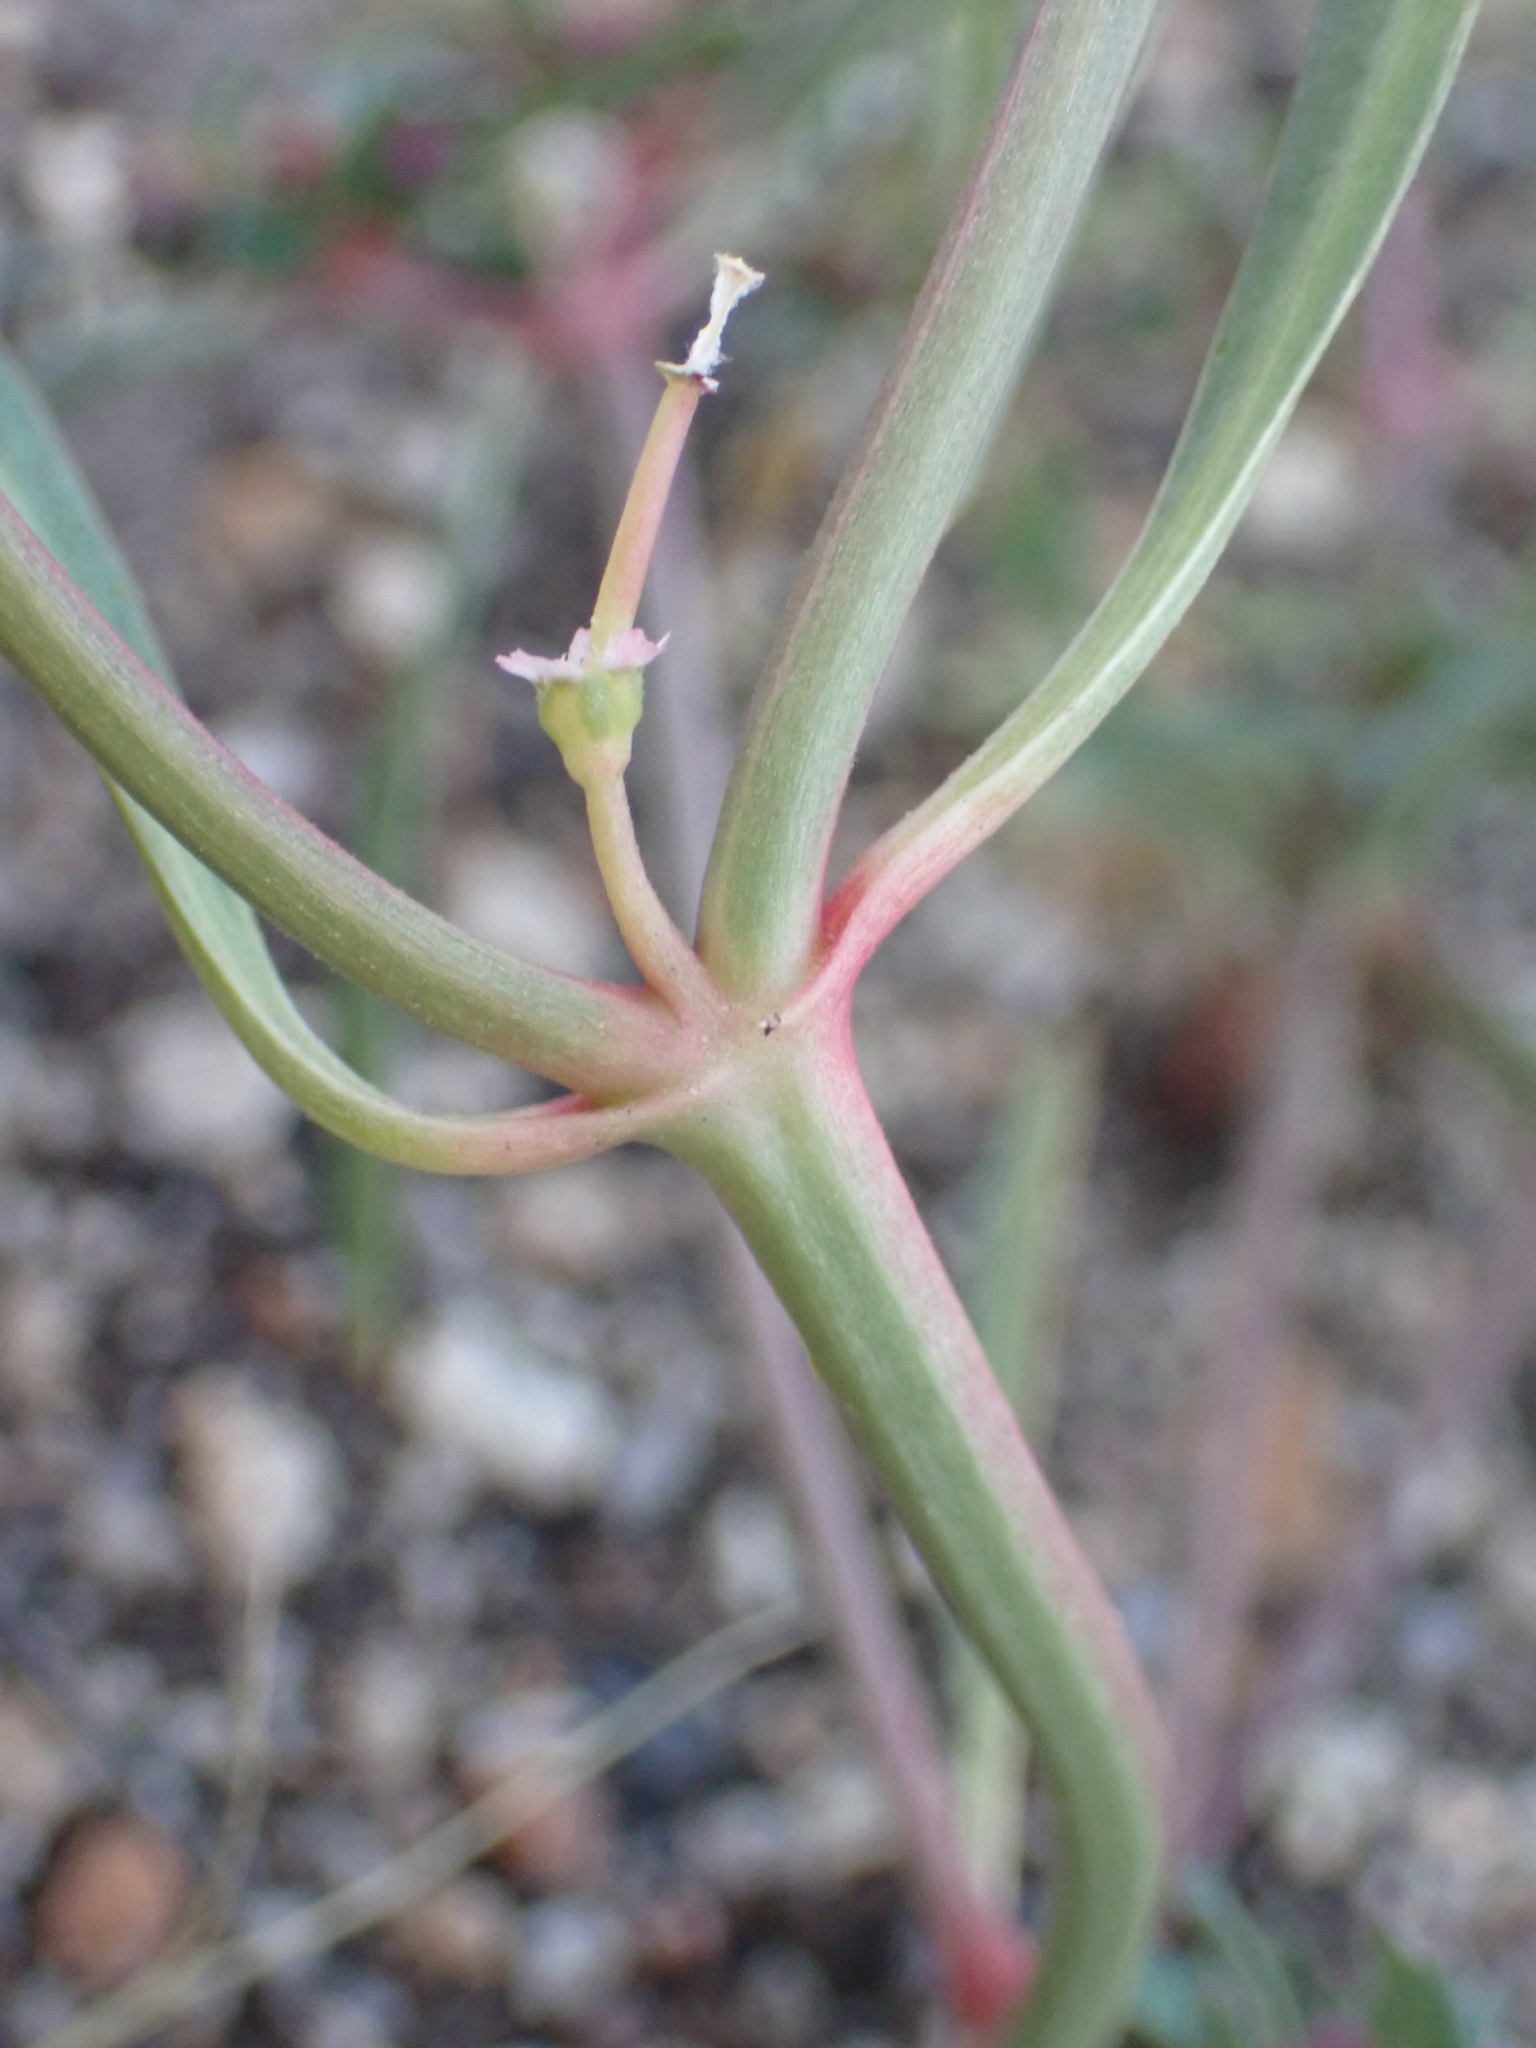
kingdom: Plantae
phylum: Tracheophyta
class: Magnoliopsida
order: Malpighiales
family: Euphorbiaceae
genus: Euphorbia
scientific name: Euphorbia exstipulata
